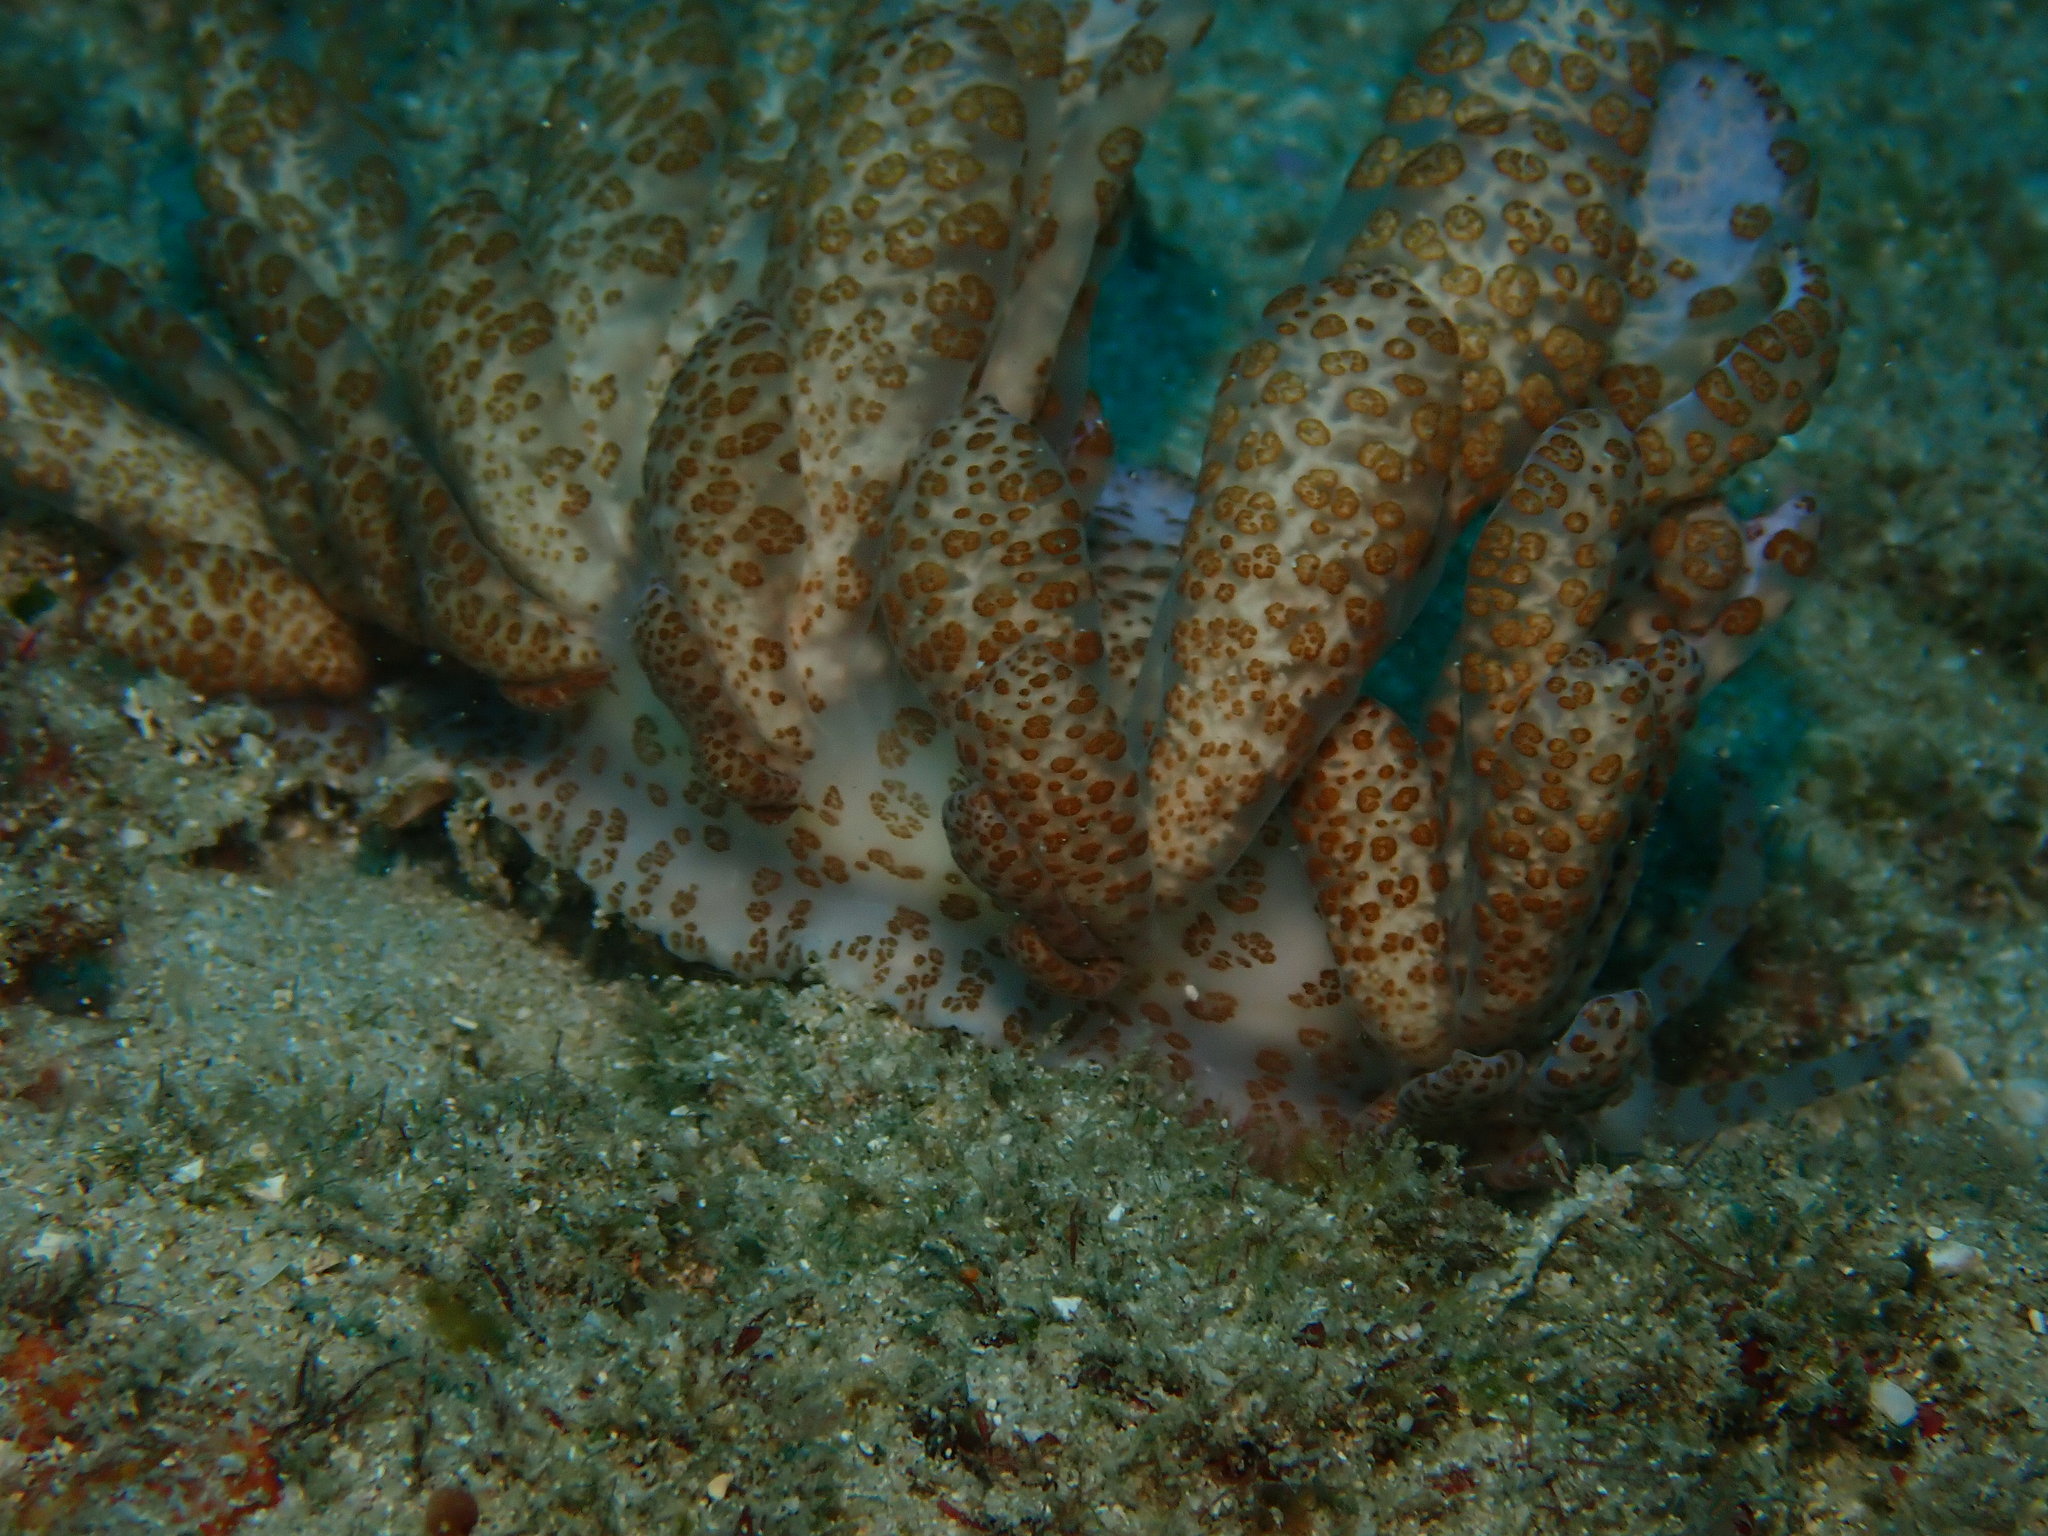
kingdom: Animalia
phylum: Mollusca
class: Gastropoda
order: Nudibranchia
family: Myrrhinidae
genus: Phyllodesmium
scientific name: Phyllodesmium longicirrum
